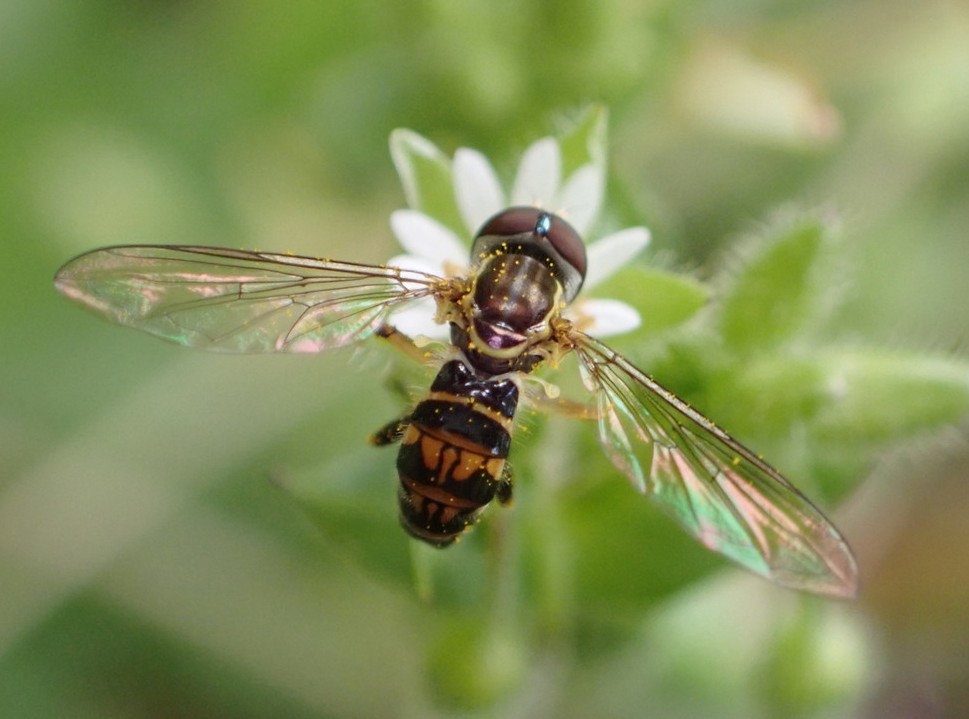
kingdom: Animalia
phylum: Arthropoda
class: Insecta
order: Diptera
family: Syrphidae
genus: Toxomerus
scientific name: Toxomerus geminatus
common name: Eastern calligrapher
